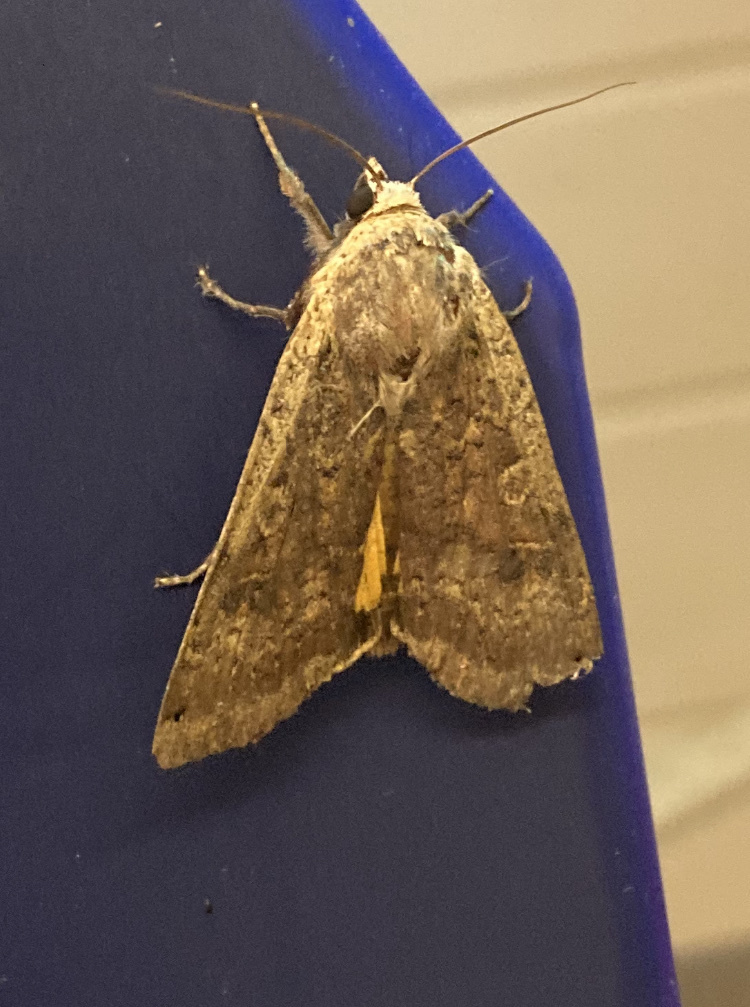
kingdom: Animalia
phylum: Arthropoda
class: Insecta
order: Lepidoptera
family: Noctuidae
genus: Noctua
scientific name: Noctua pronuba
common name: Large yellow underwing
